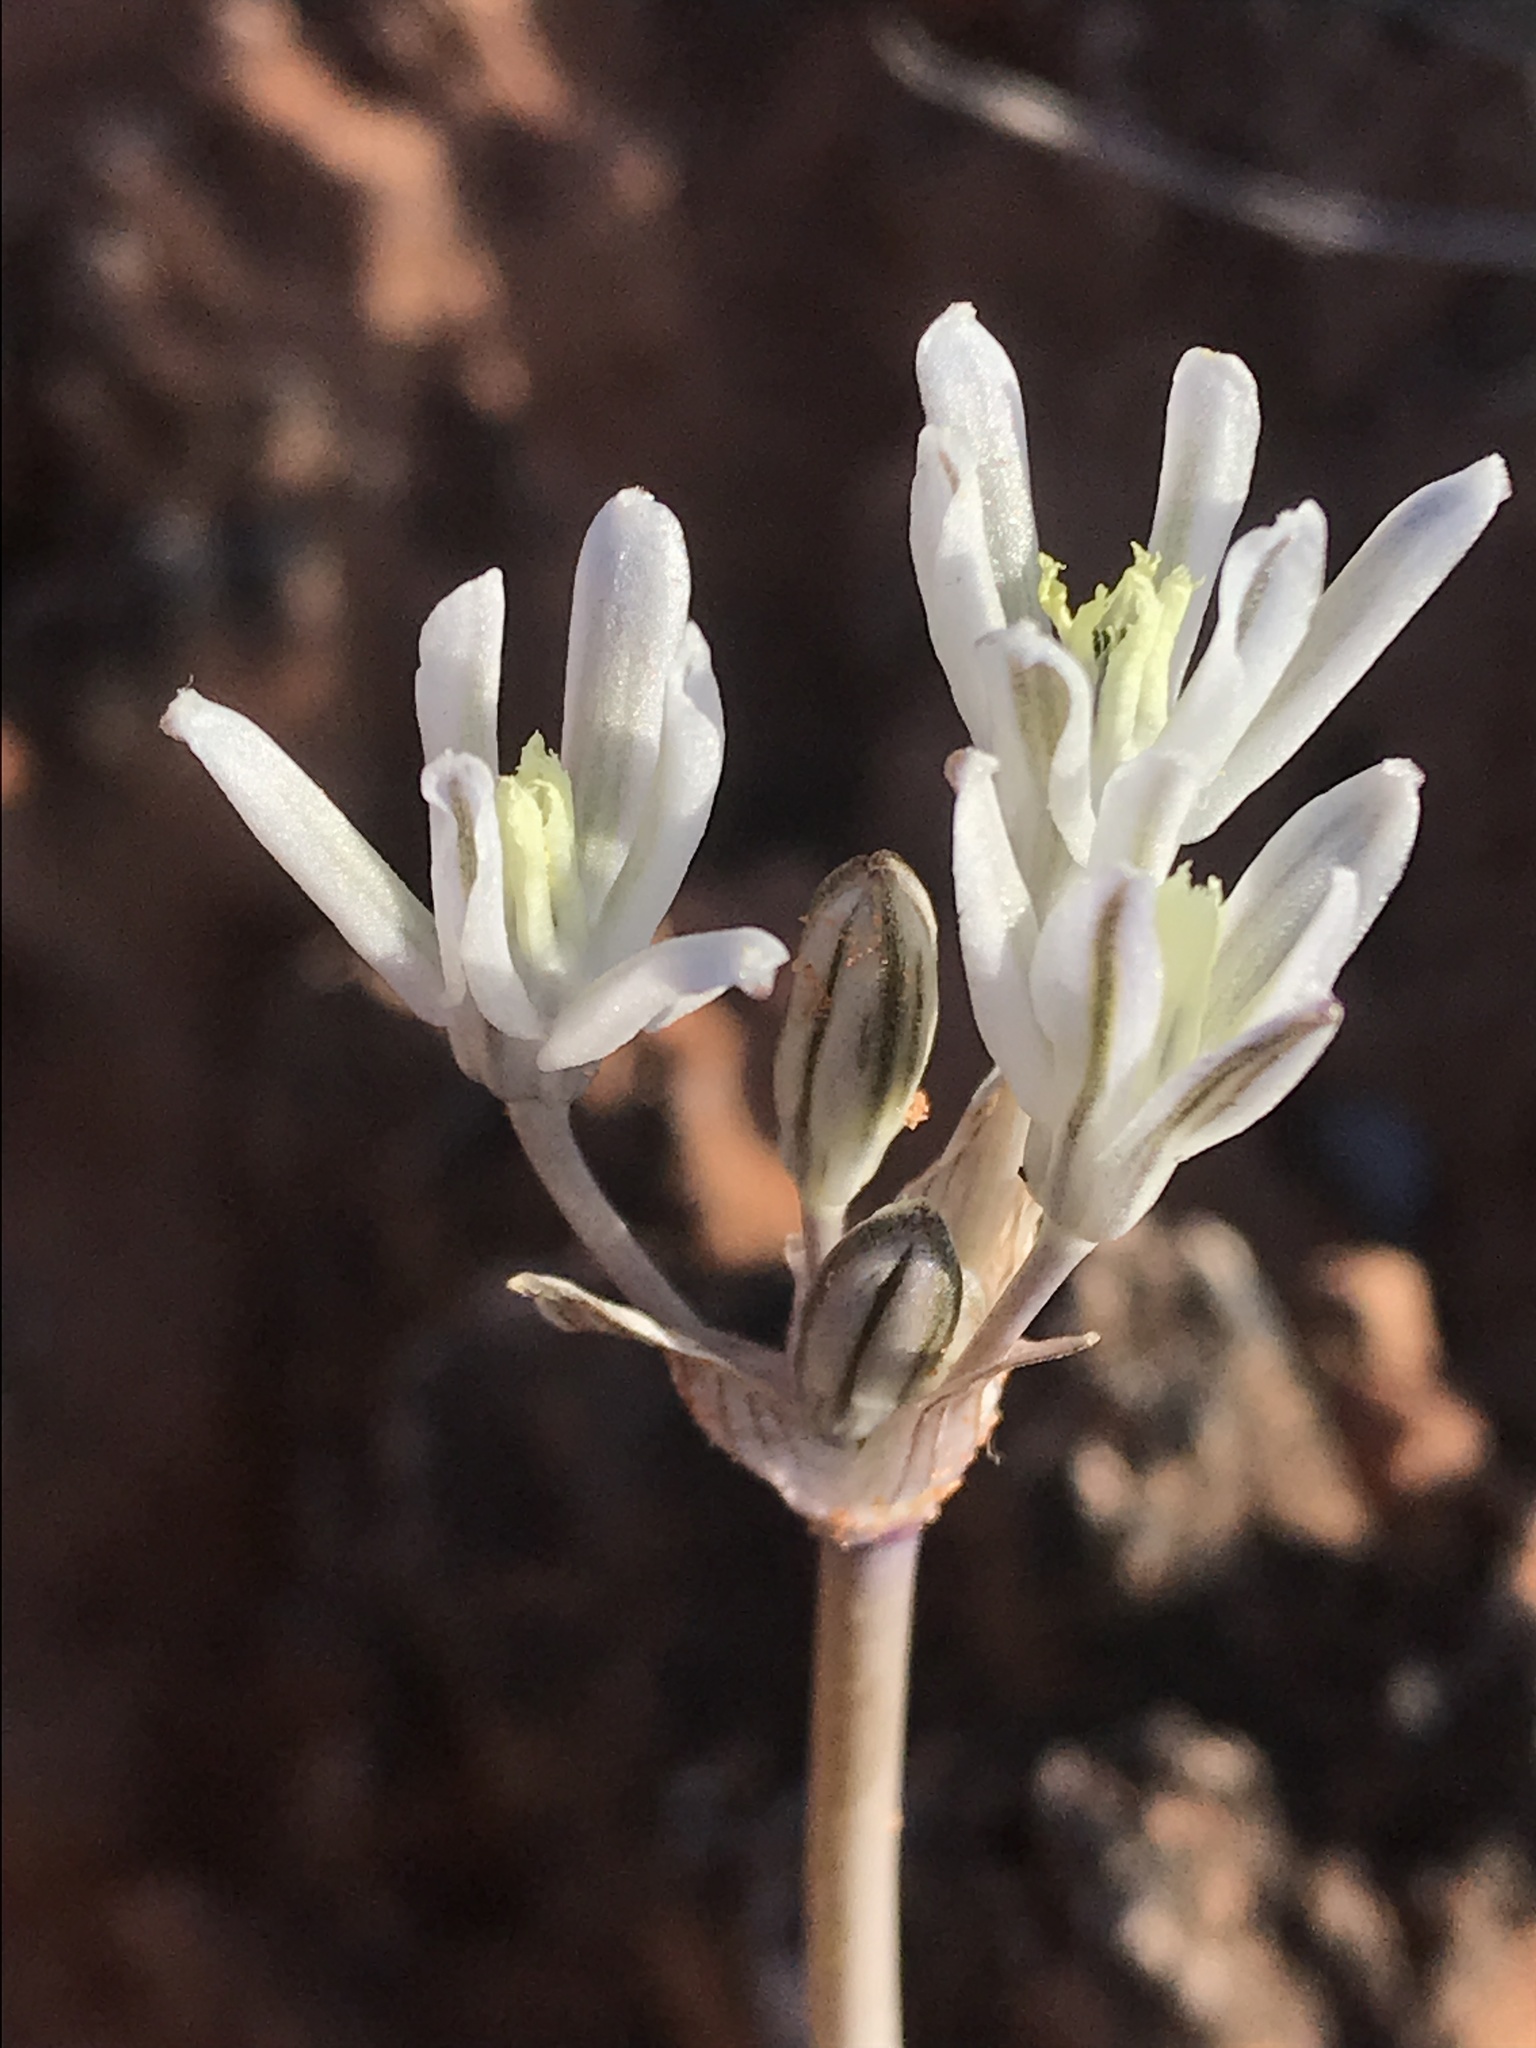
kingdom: Plantae
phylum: Tracheophyta
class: Liliopsida
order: Asparagales
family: Asparagaceae
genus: Androstephium
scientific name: Androstephium breviflorum
